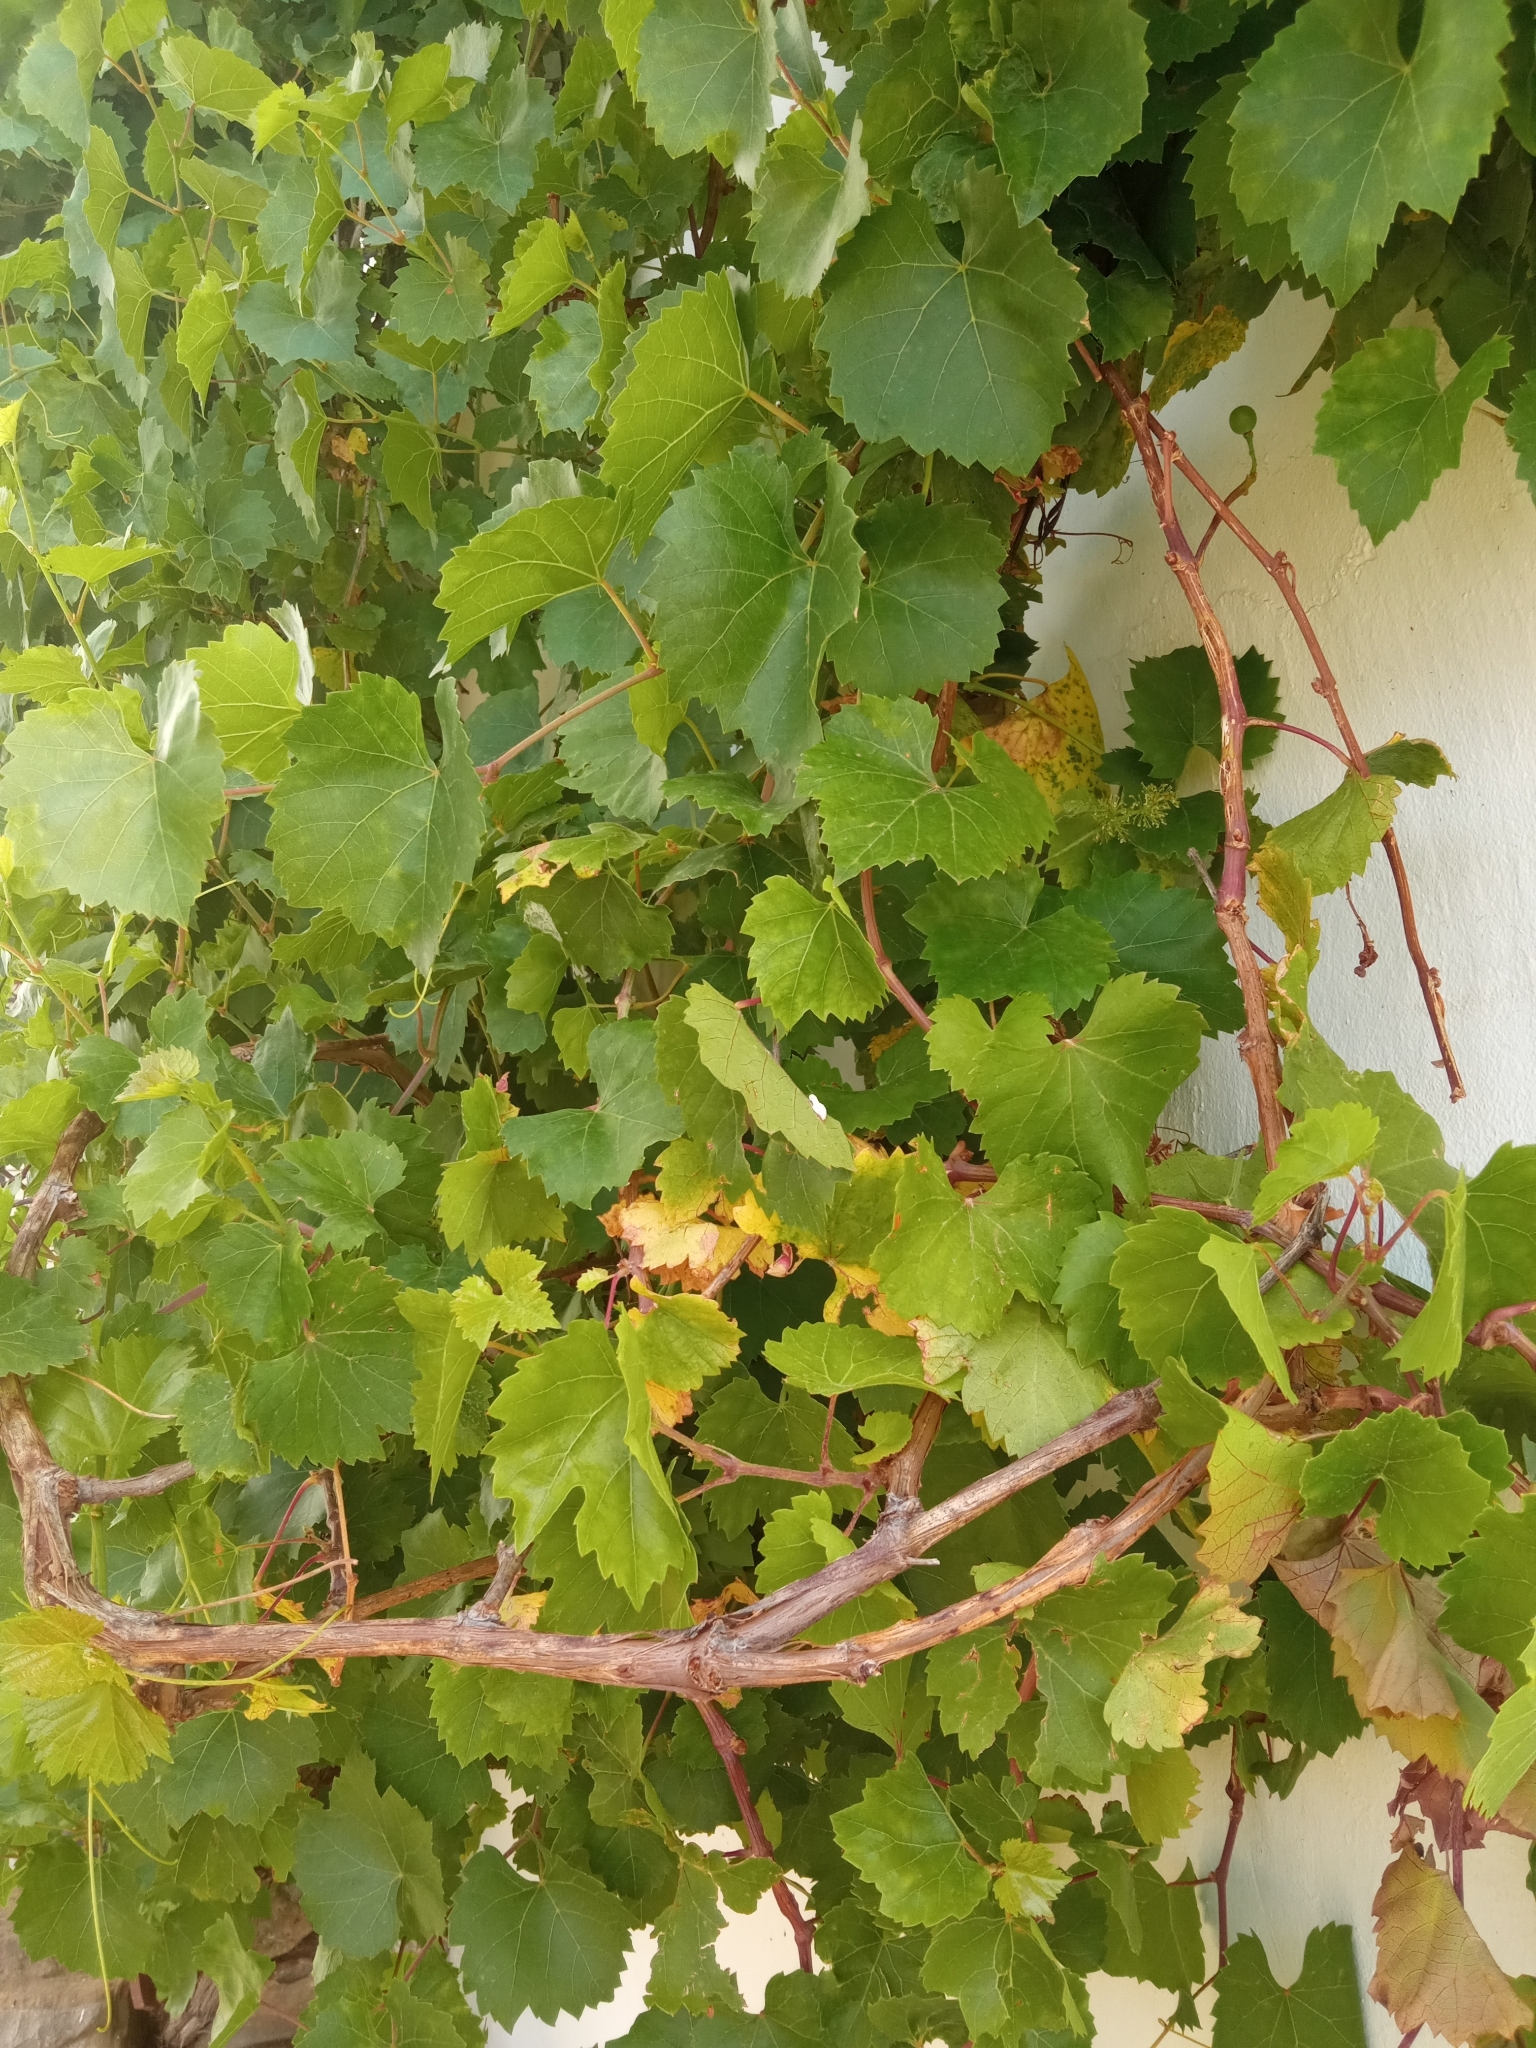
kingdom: Plantae
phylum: Tracheophyta
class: Magnoliopsida
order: Vitales
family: Vitaceae
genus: Vitis
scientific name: Vitis vinifera
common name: Grape-vine
